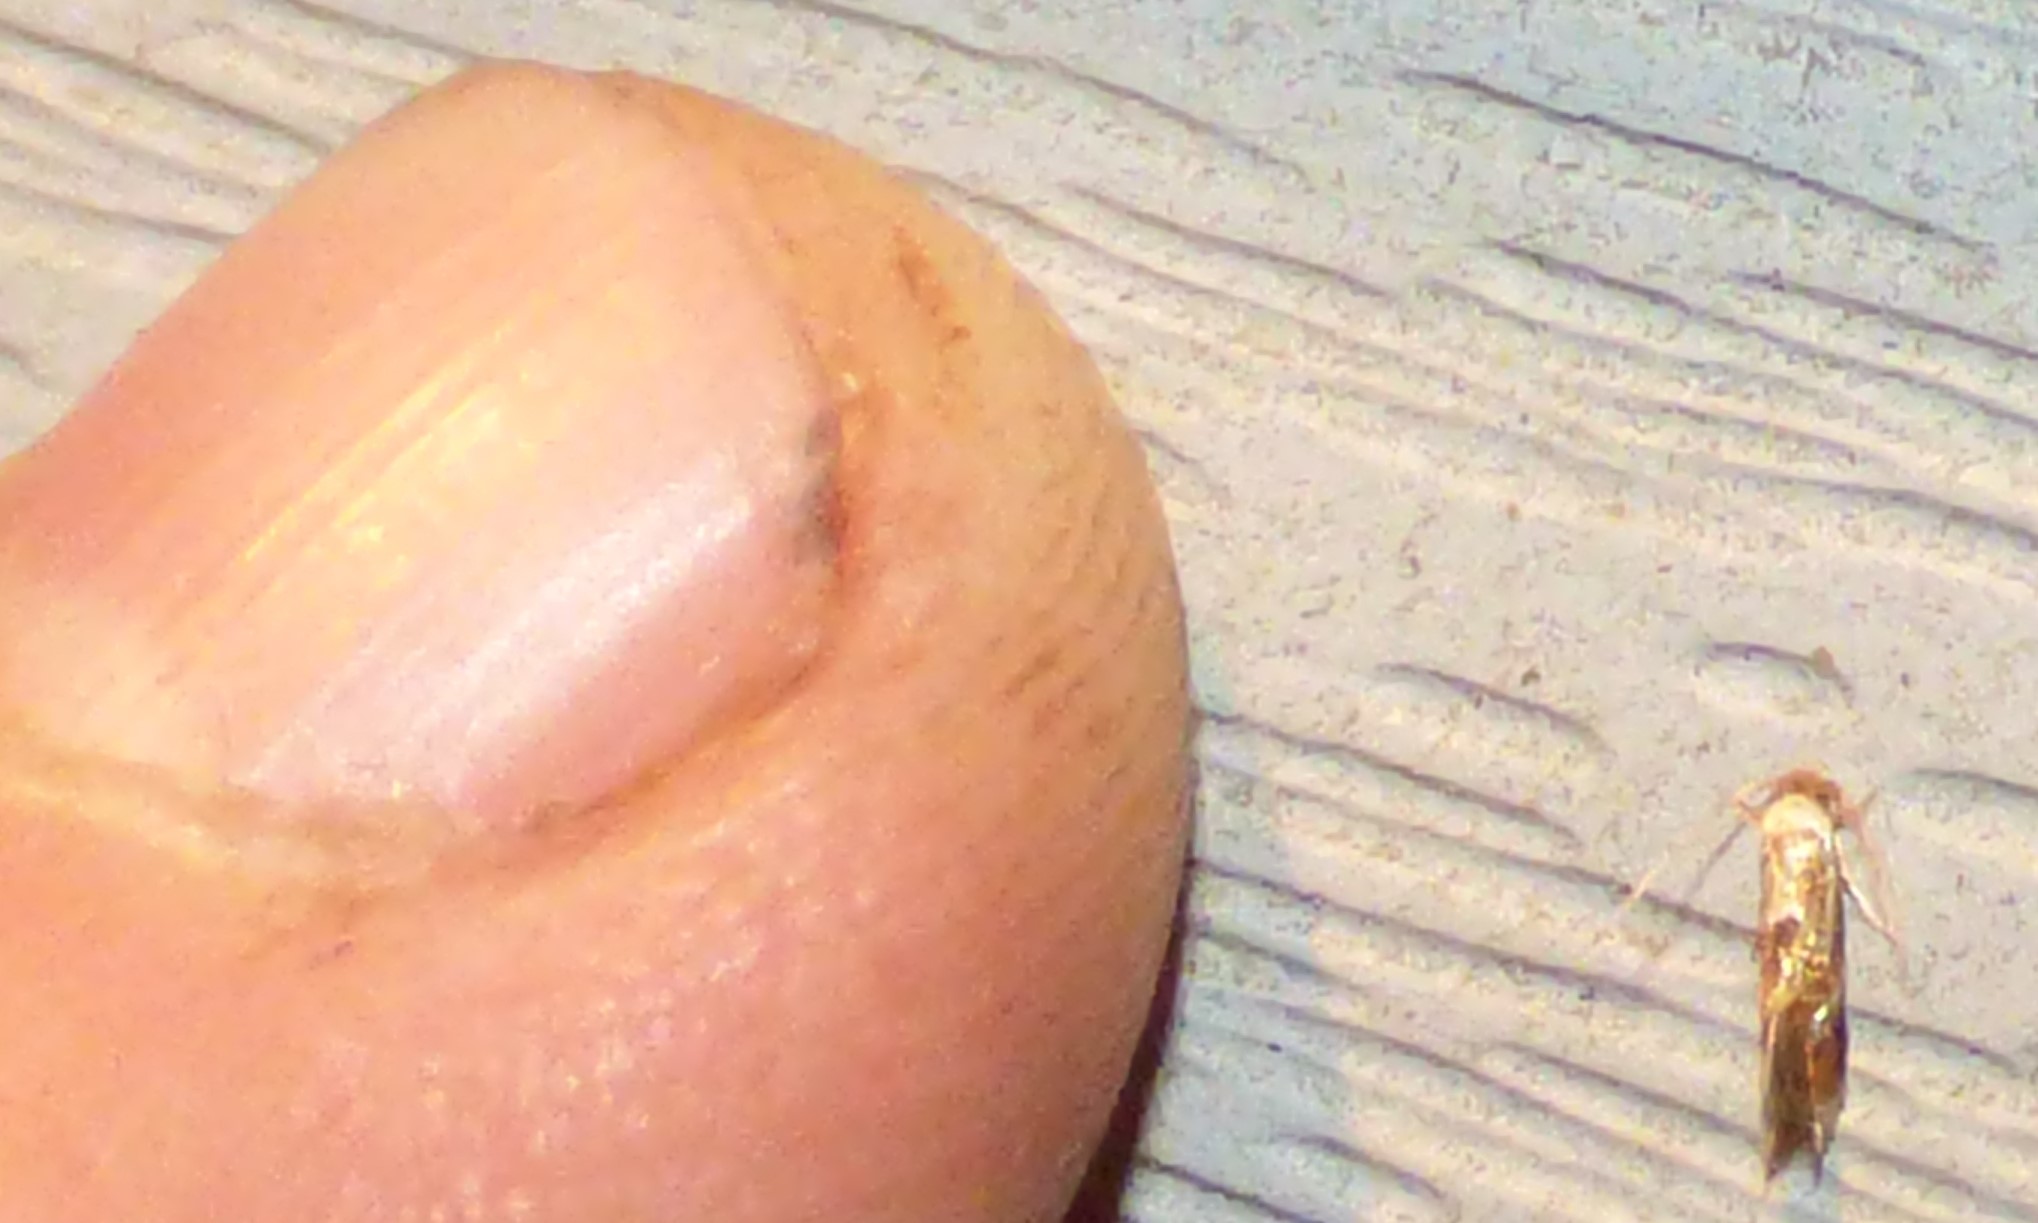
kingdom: Animalia
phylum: Arthropoda
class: Insecta
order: Lepidoptera
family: Lyonetiidae
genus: Philonome
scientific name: Philonome clemensella
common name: Clemen's philonome moth
